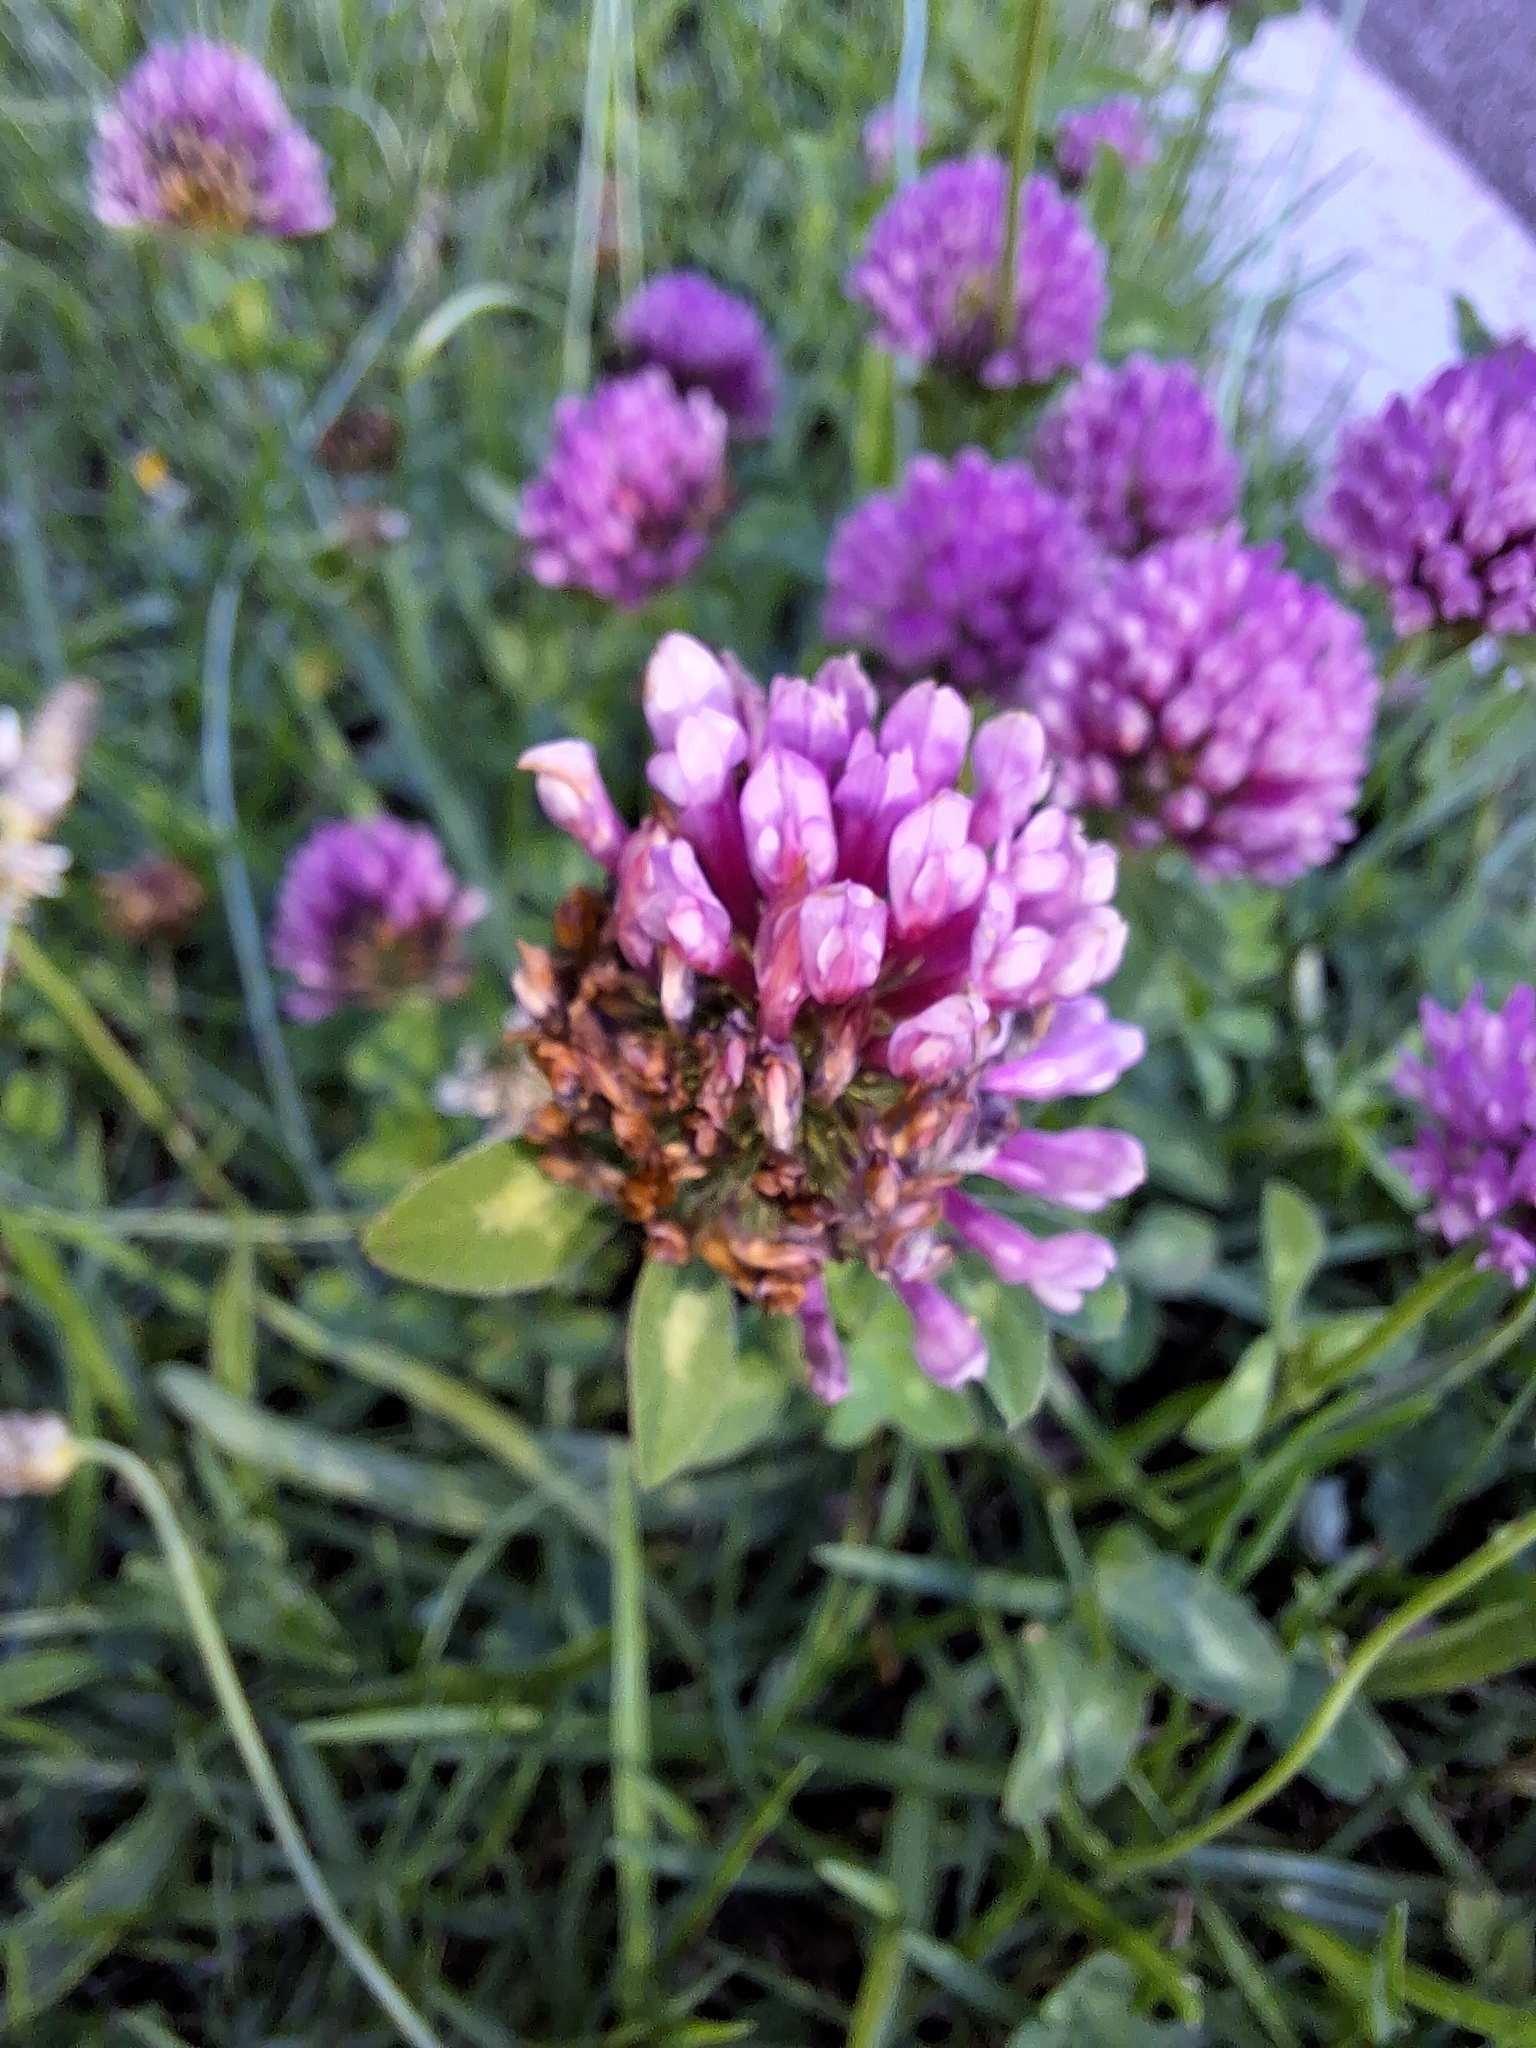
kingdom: Plantae
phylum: Tracheophyta
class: Magnoliopsida
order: Fabales
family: Fabaceae
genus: Trifolium
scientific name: Trifolium pratense
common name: Red clover
